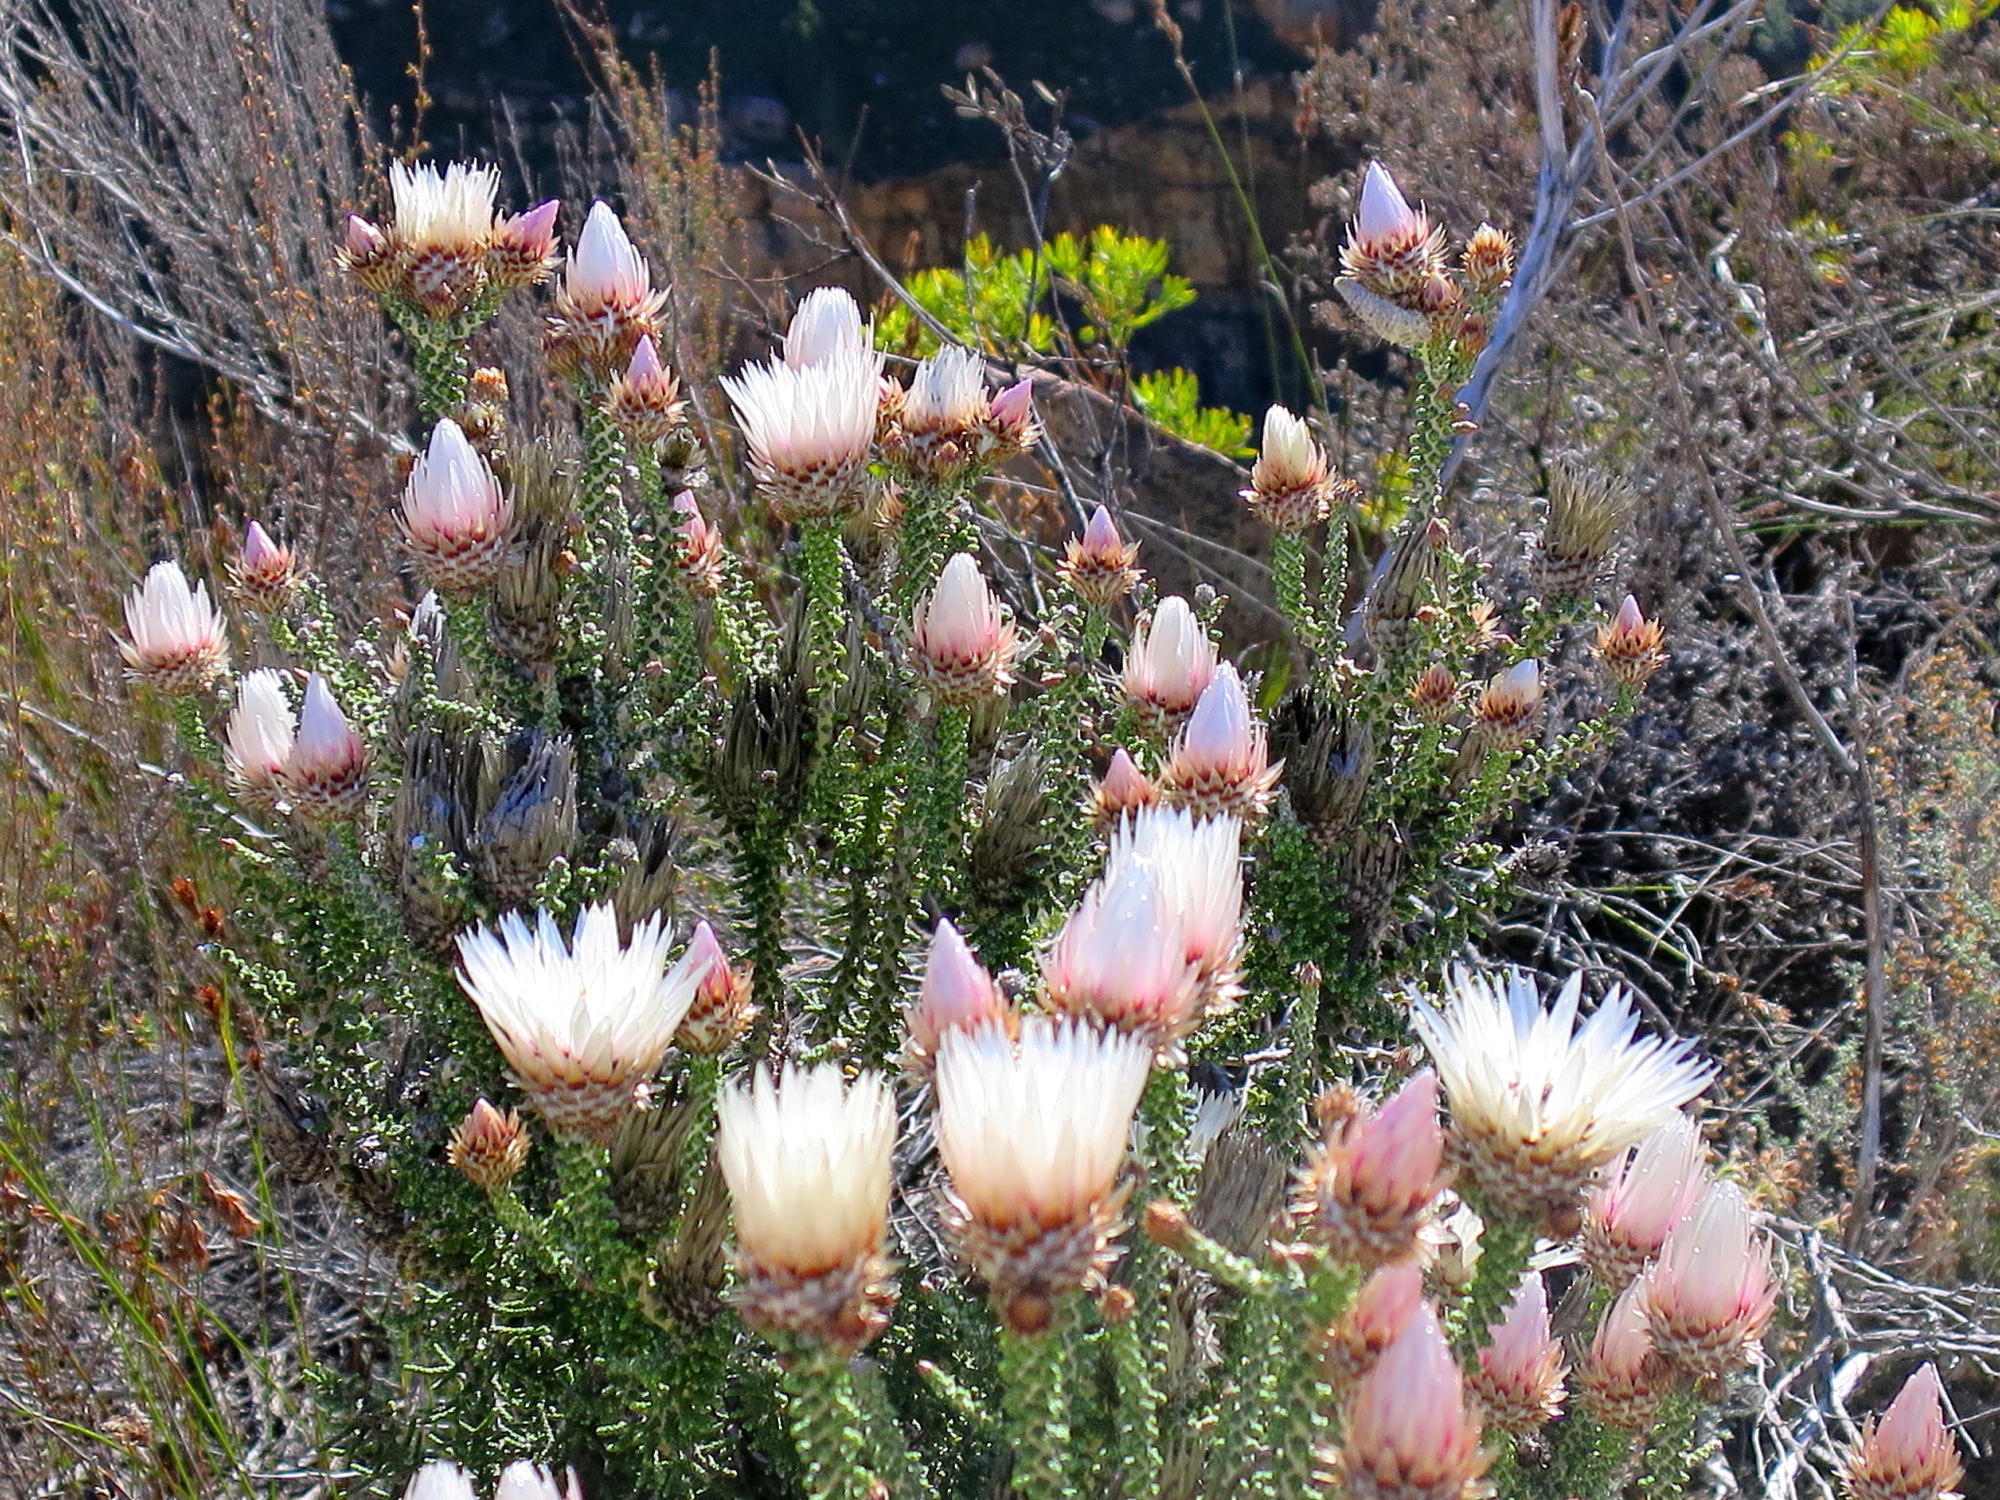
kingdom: Plantae
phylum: Tracheophyta
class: Magnoliopsida
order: Asterales
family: Asteraceae
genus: Phaenocoma
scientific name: Phaenocoma prolifera
